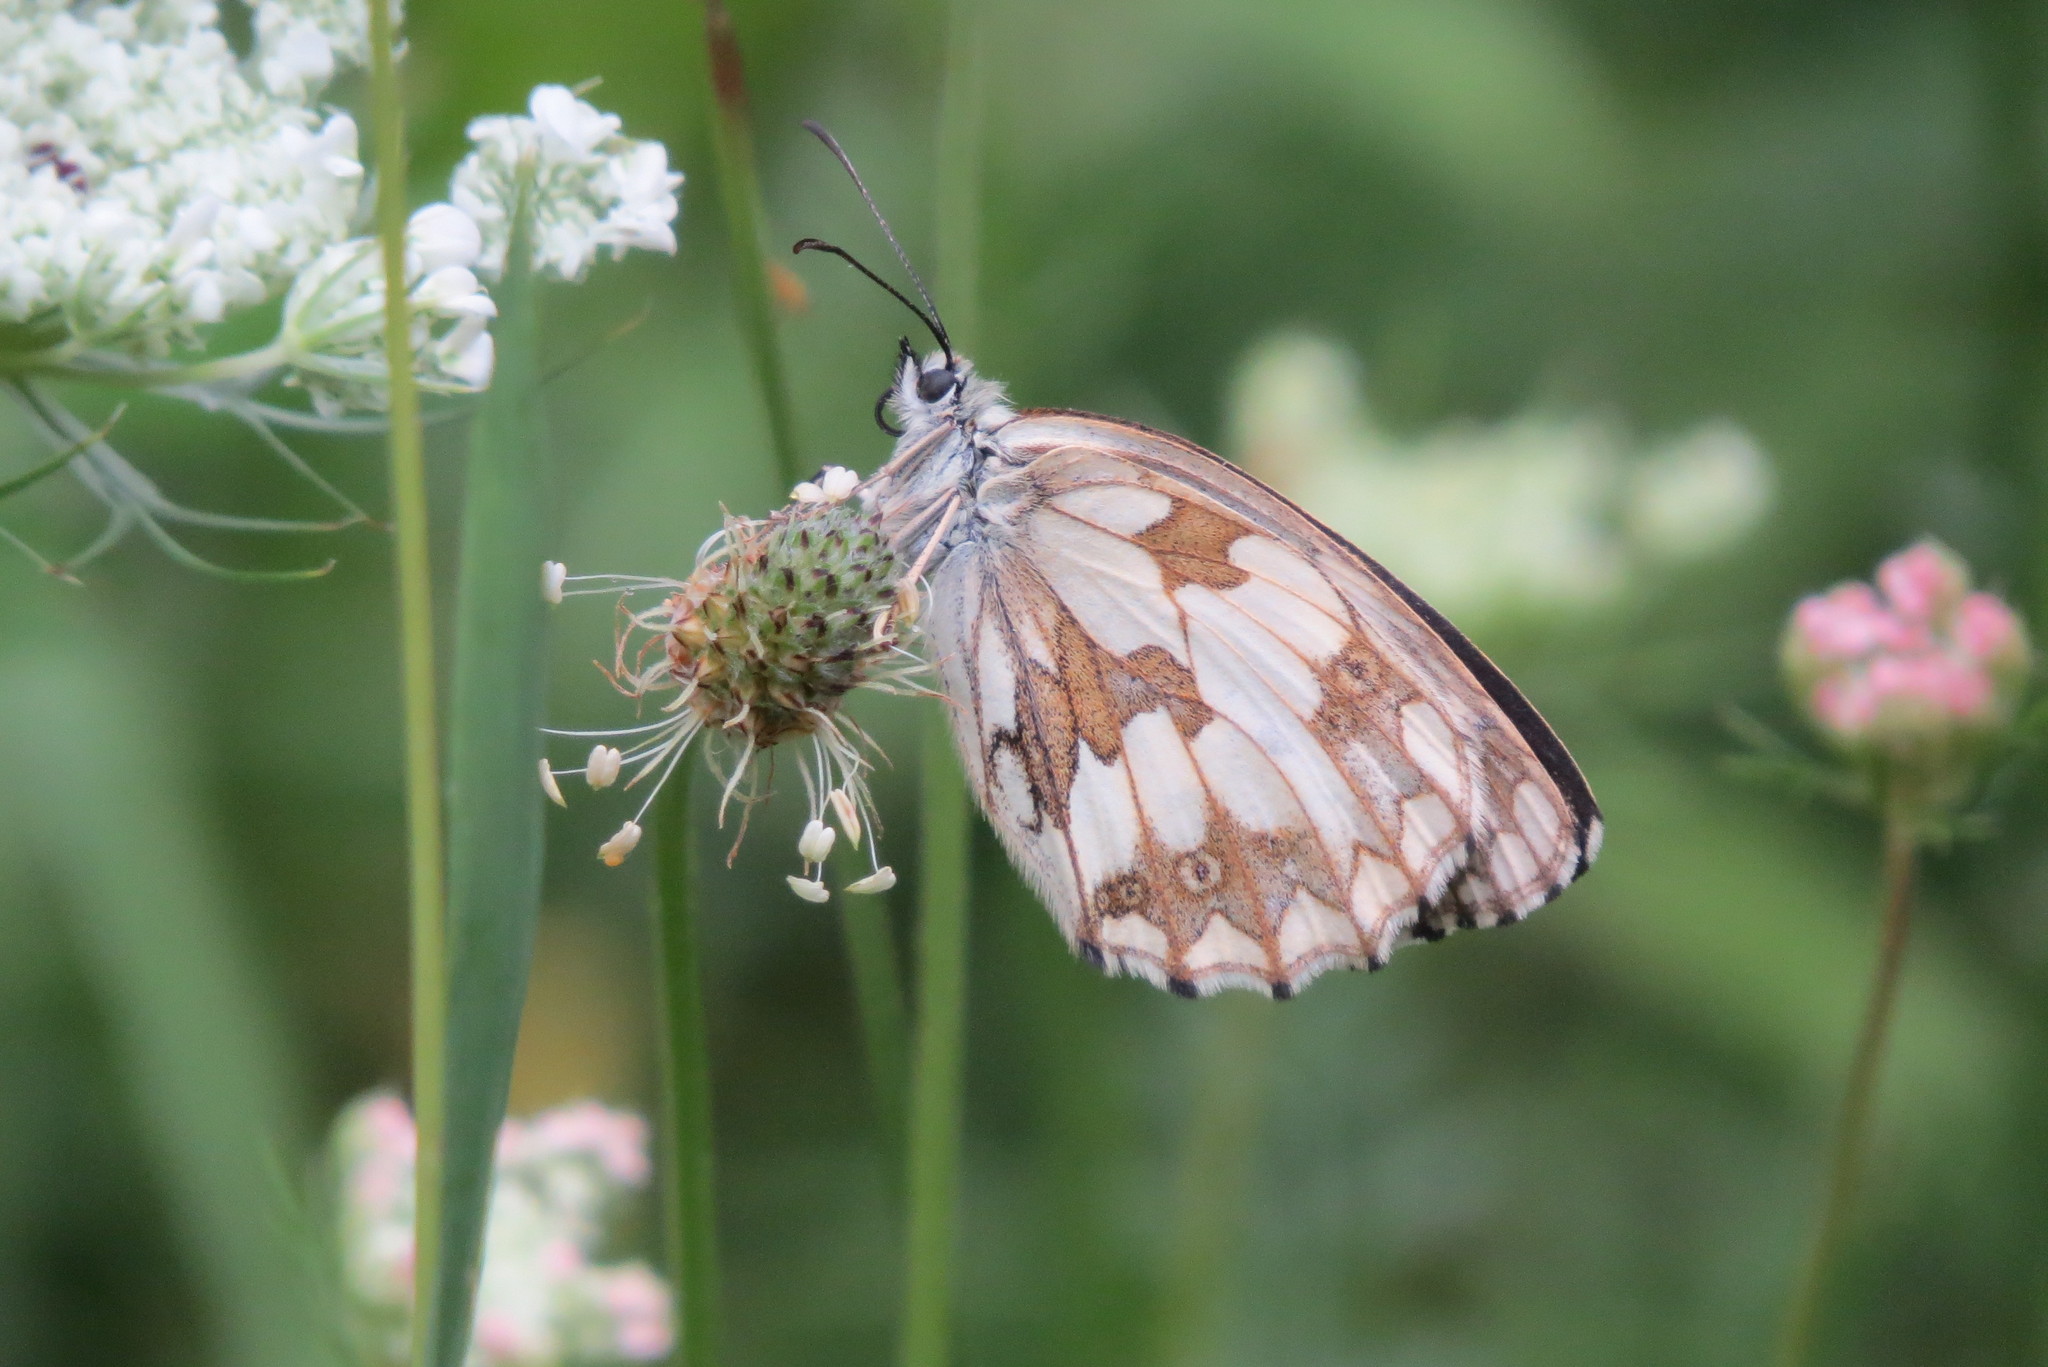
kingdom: Animalia
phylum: Arthropoda
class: Insecta
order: Lepidoptera
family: Nymphalidae
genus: Melanargia
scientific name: Melanargia galathea
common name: Marbled white
